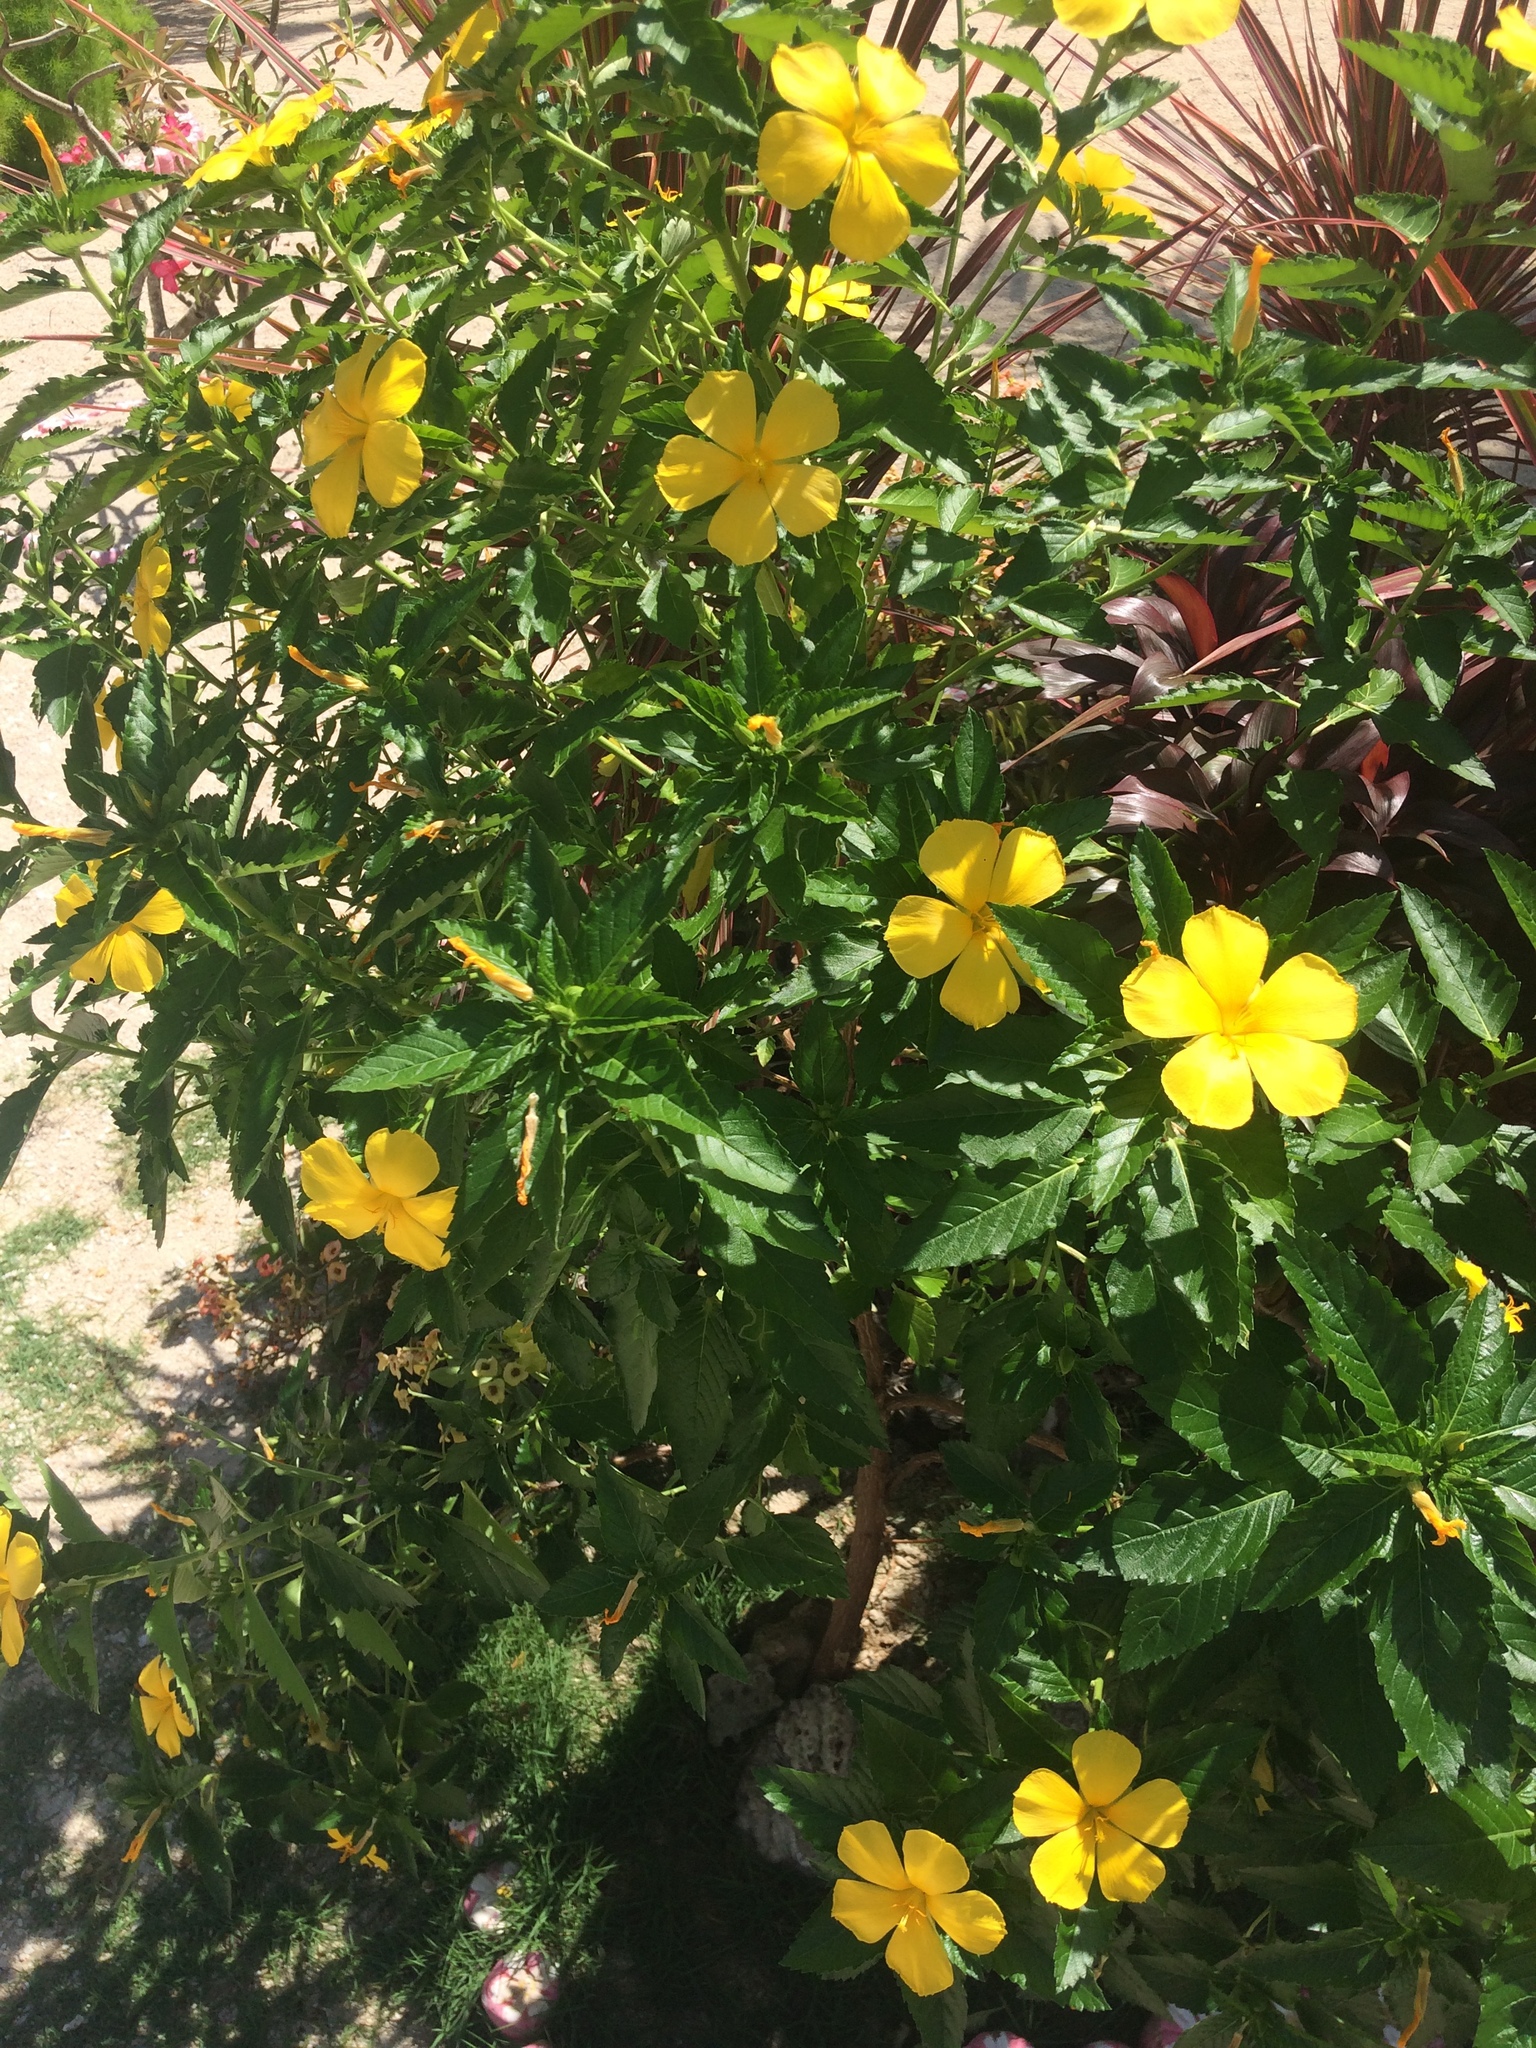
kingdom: Plantae
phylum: Tracheophyta
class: Magnoliopsida
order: Malpighiales
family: Turneraceae
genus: Turnera
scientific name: Turnera ulmifolia
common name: Ramgoat dashalong
